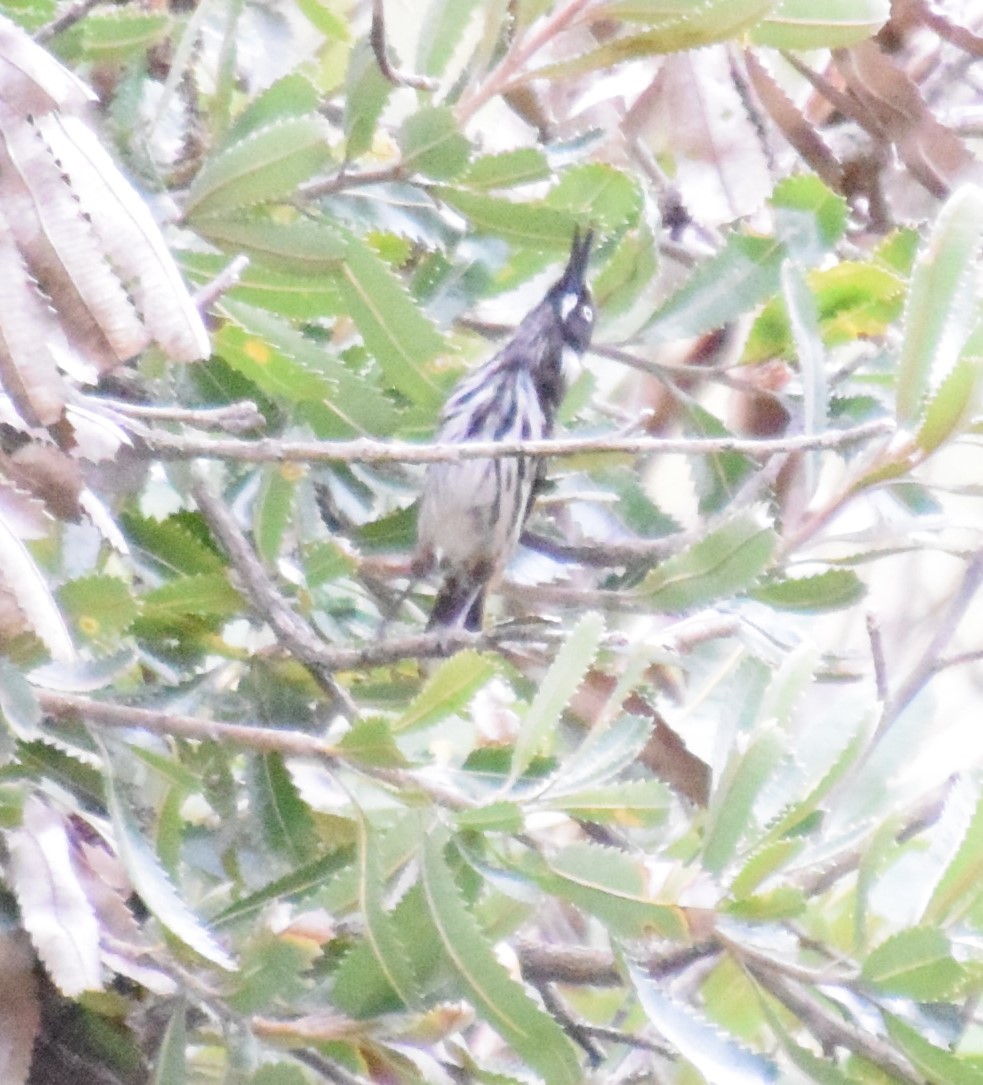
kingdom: Animalia
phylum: Chordata
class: Aves
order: Passeriformes
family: Meliphagidae
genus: Phylidonyris
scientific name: Phylidonyris novaehollandiae
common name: New holland honeyeater
